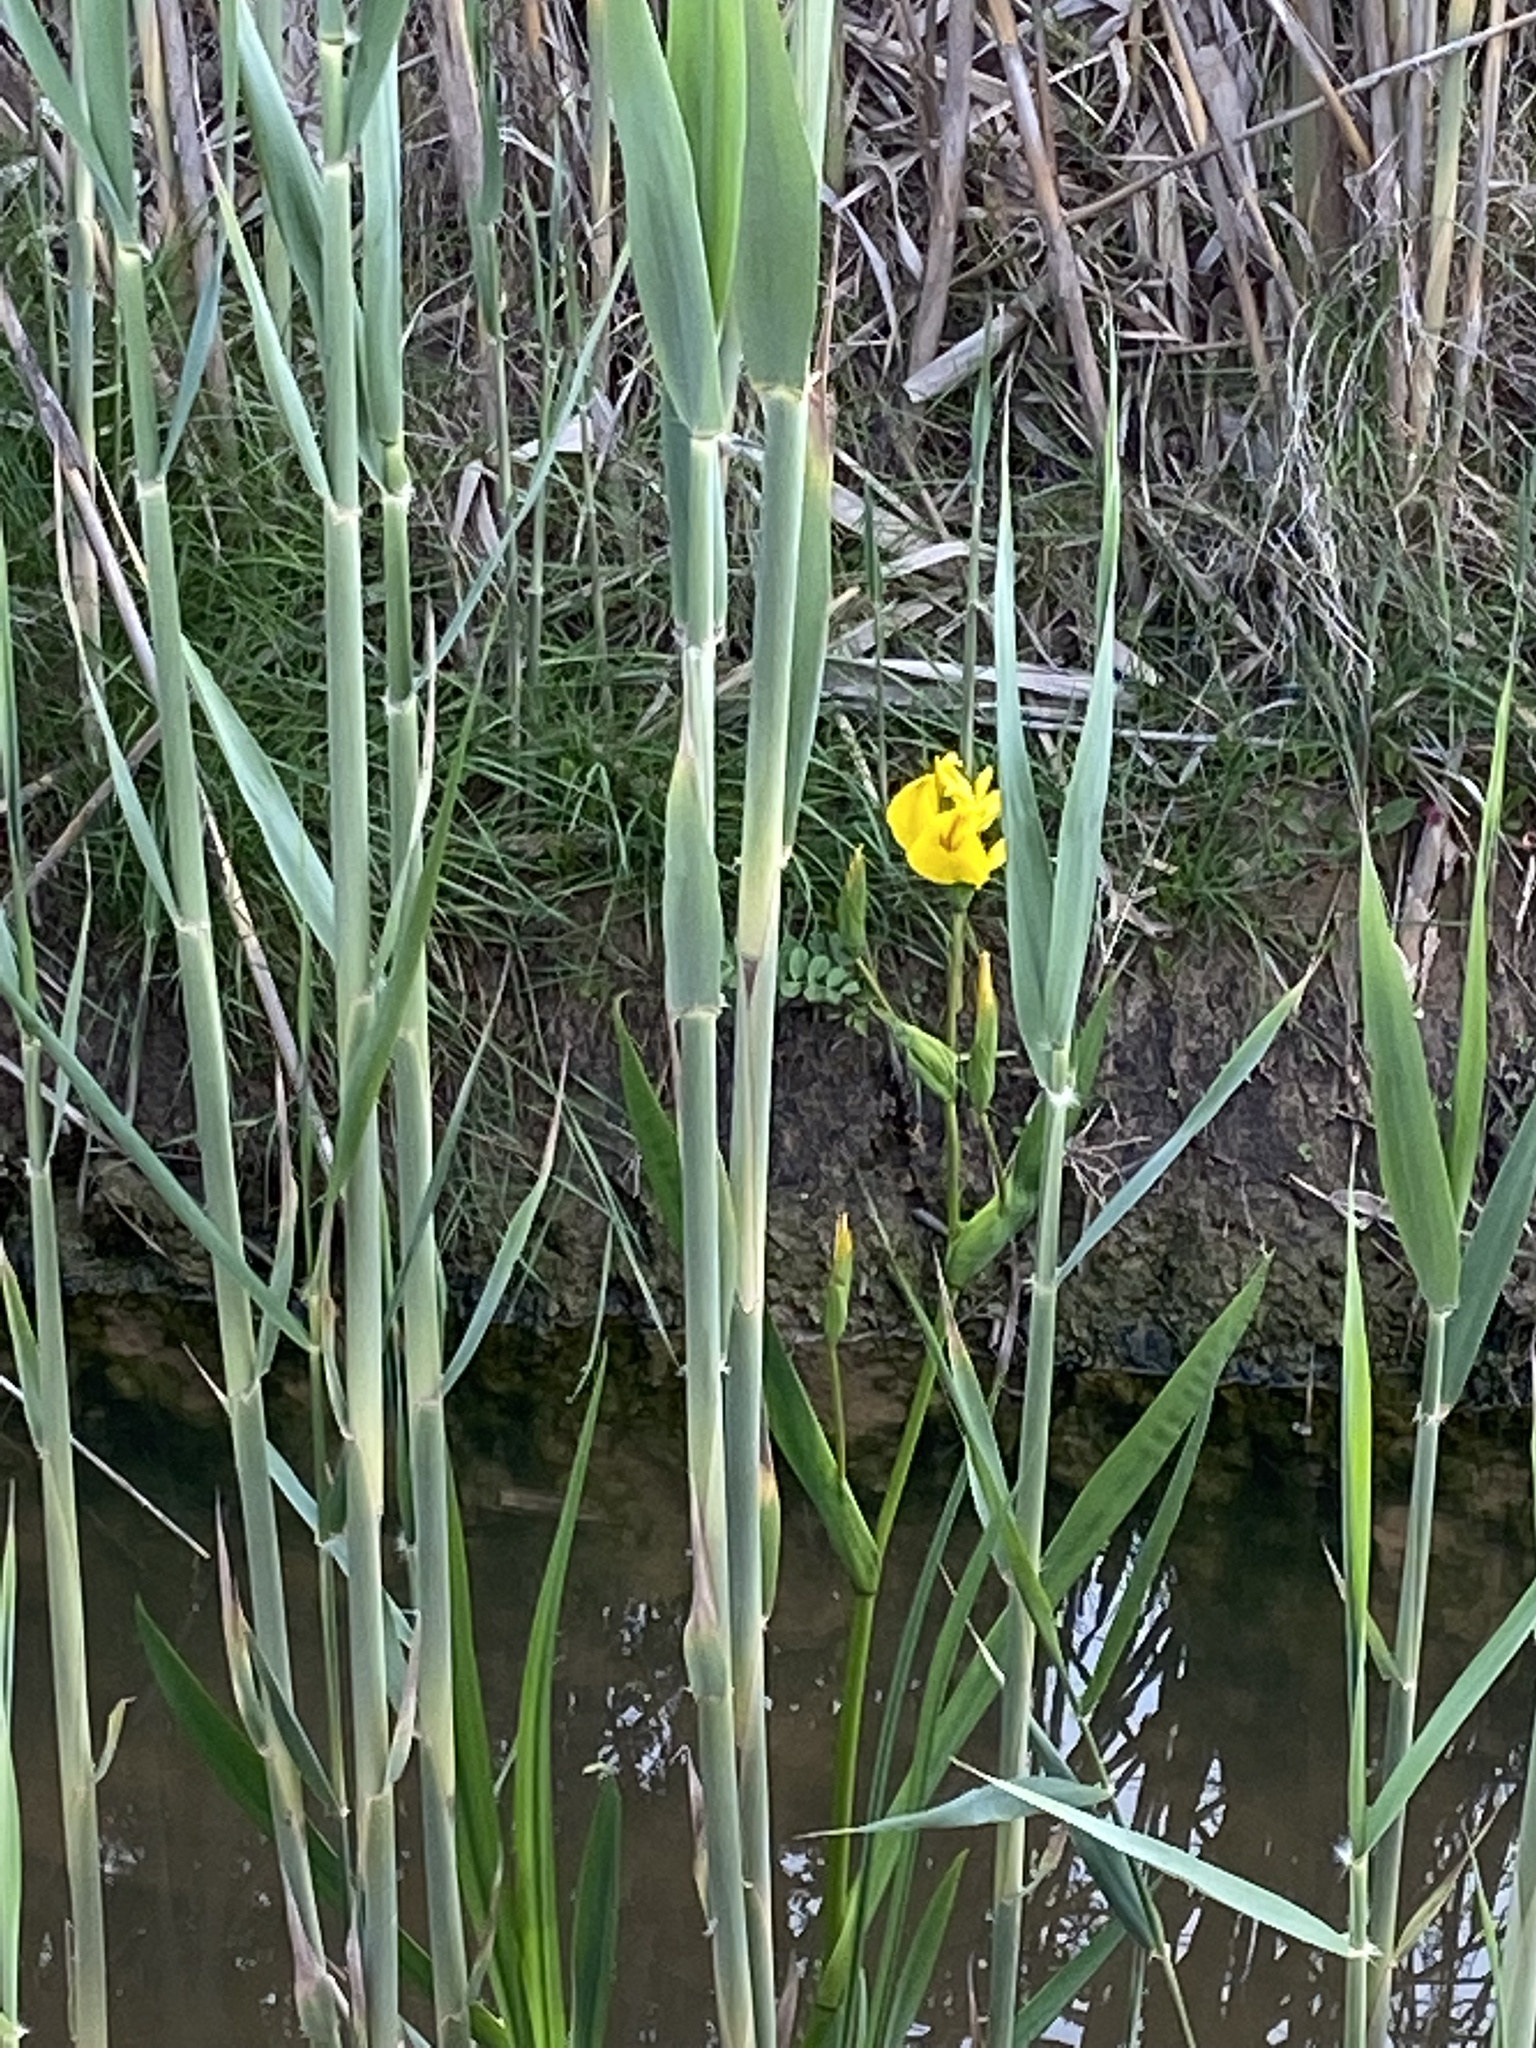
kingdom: Plantae
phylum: Tracheophyta
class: Liliopsida
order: Asparagales
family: Iridaceae
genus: Iris
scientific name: Iris pseudacorus
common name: Yellow flag
